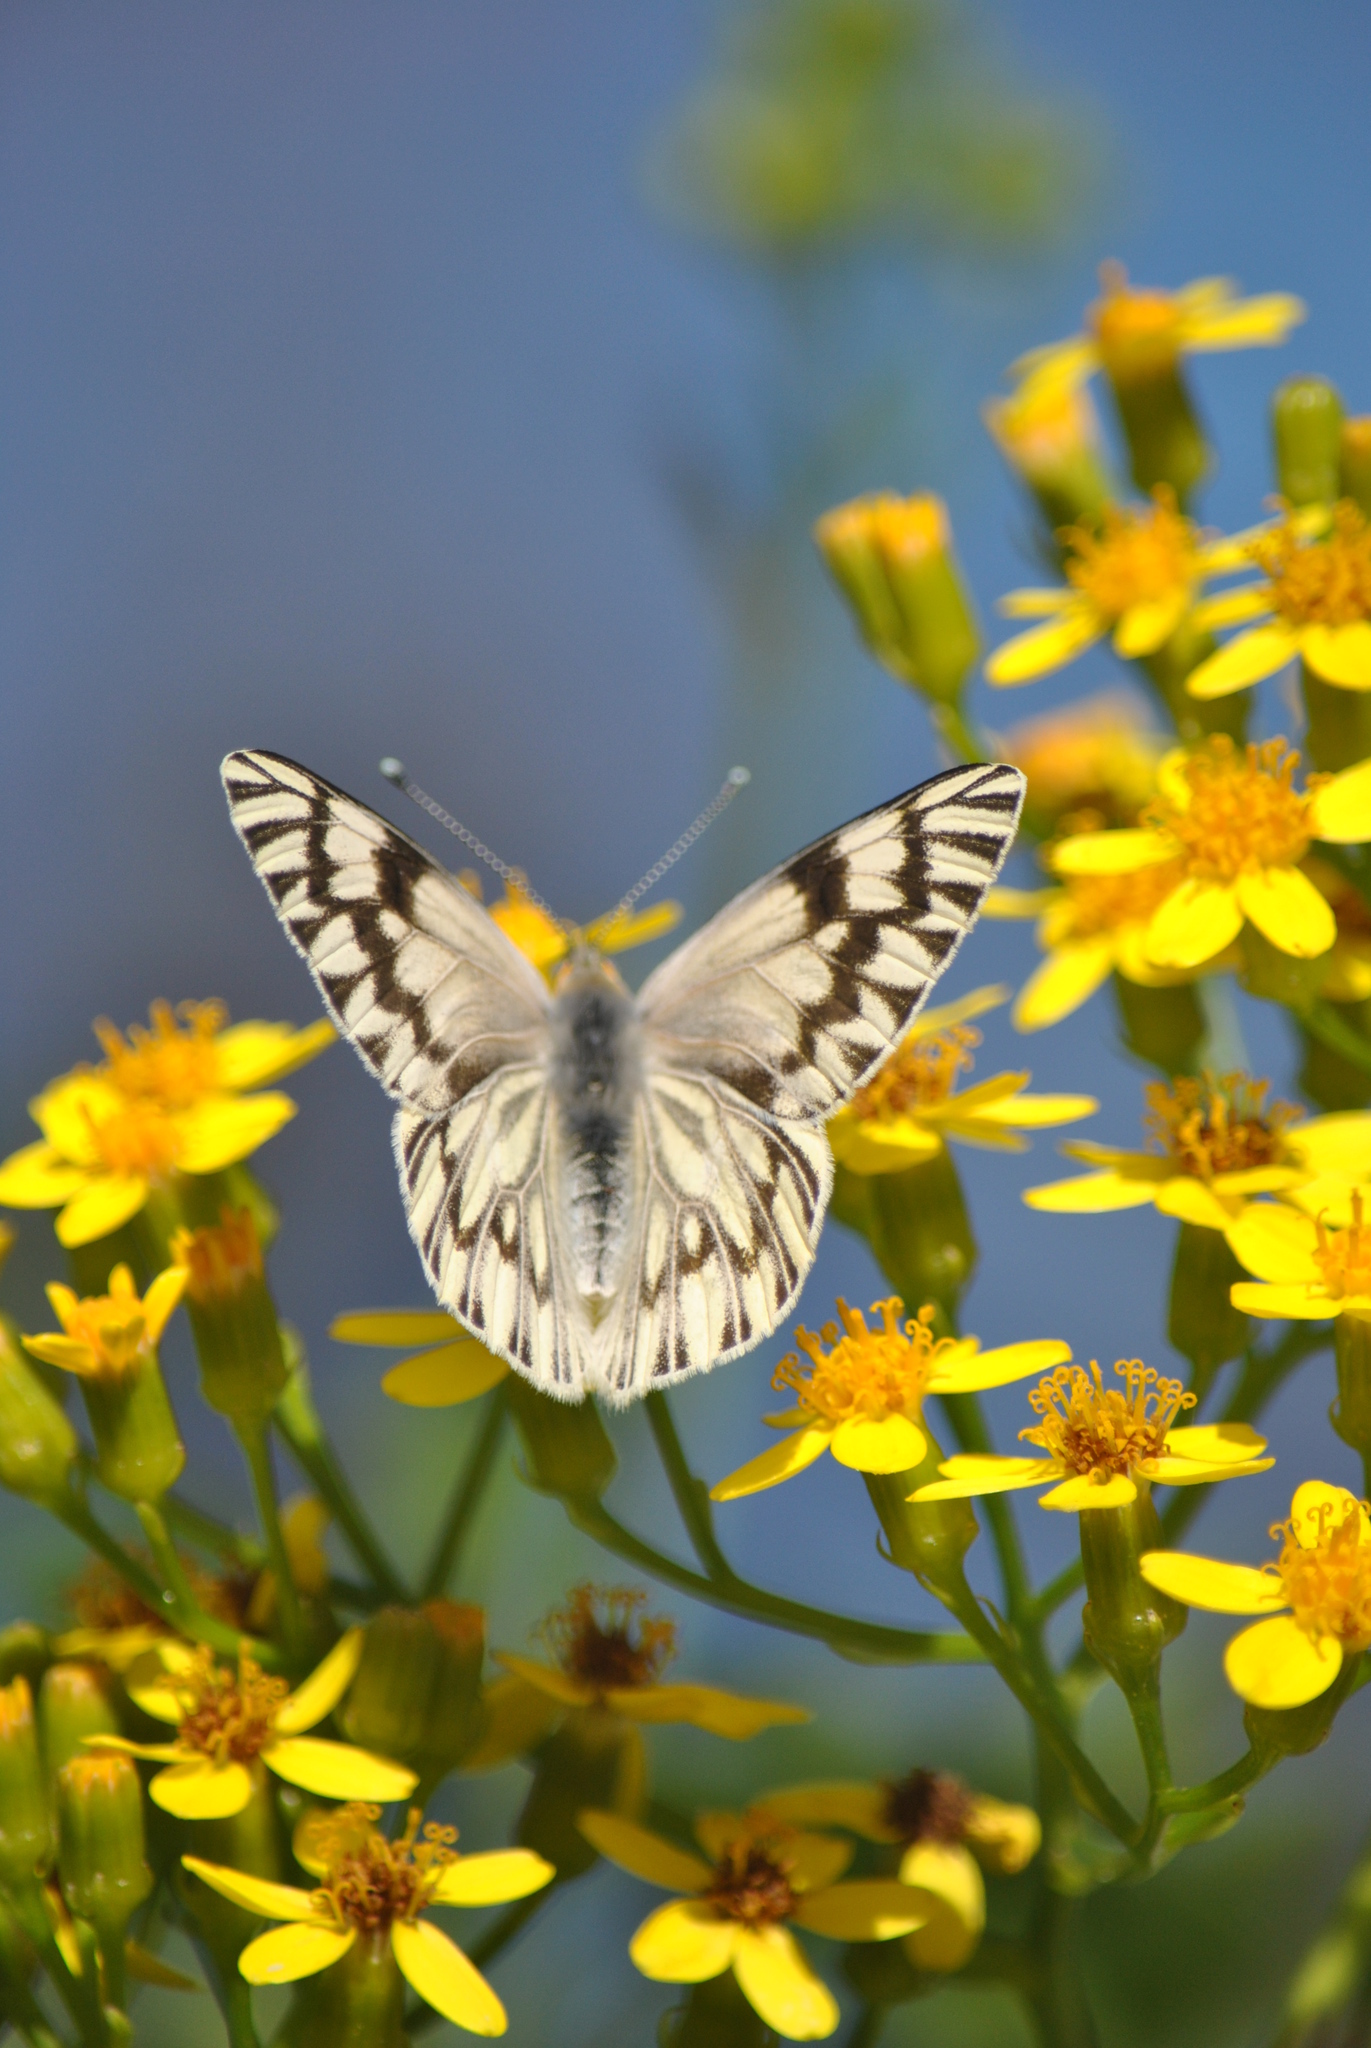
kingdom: Animalia
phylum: Arthropoda
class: Insecta
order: Lepidoptera
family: Pieridae
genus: Tatochila
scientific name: Tatochila mercedis
